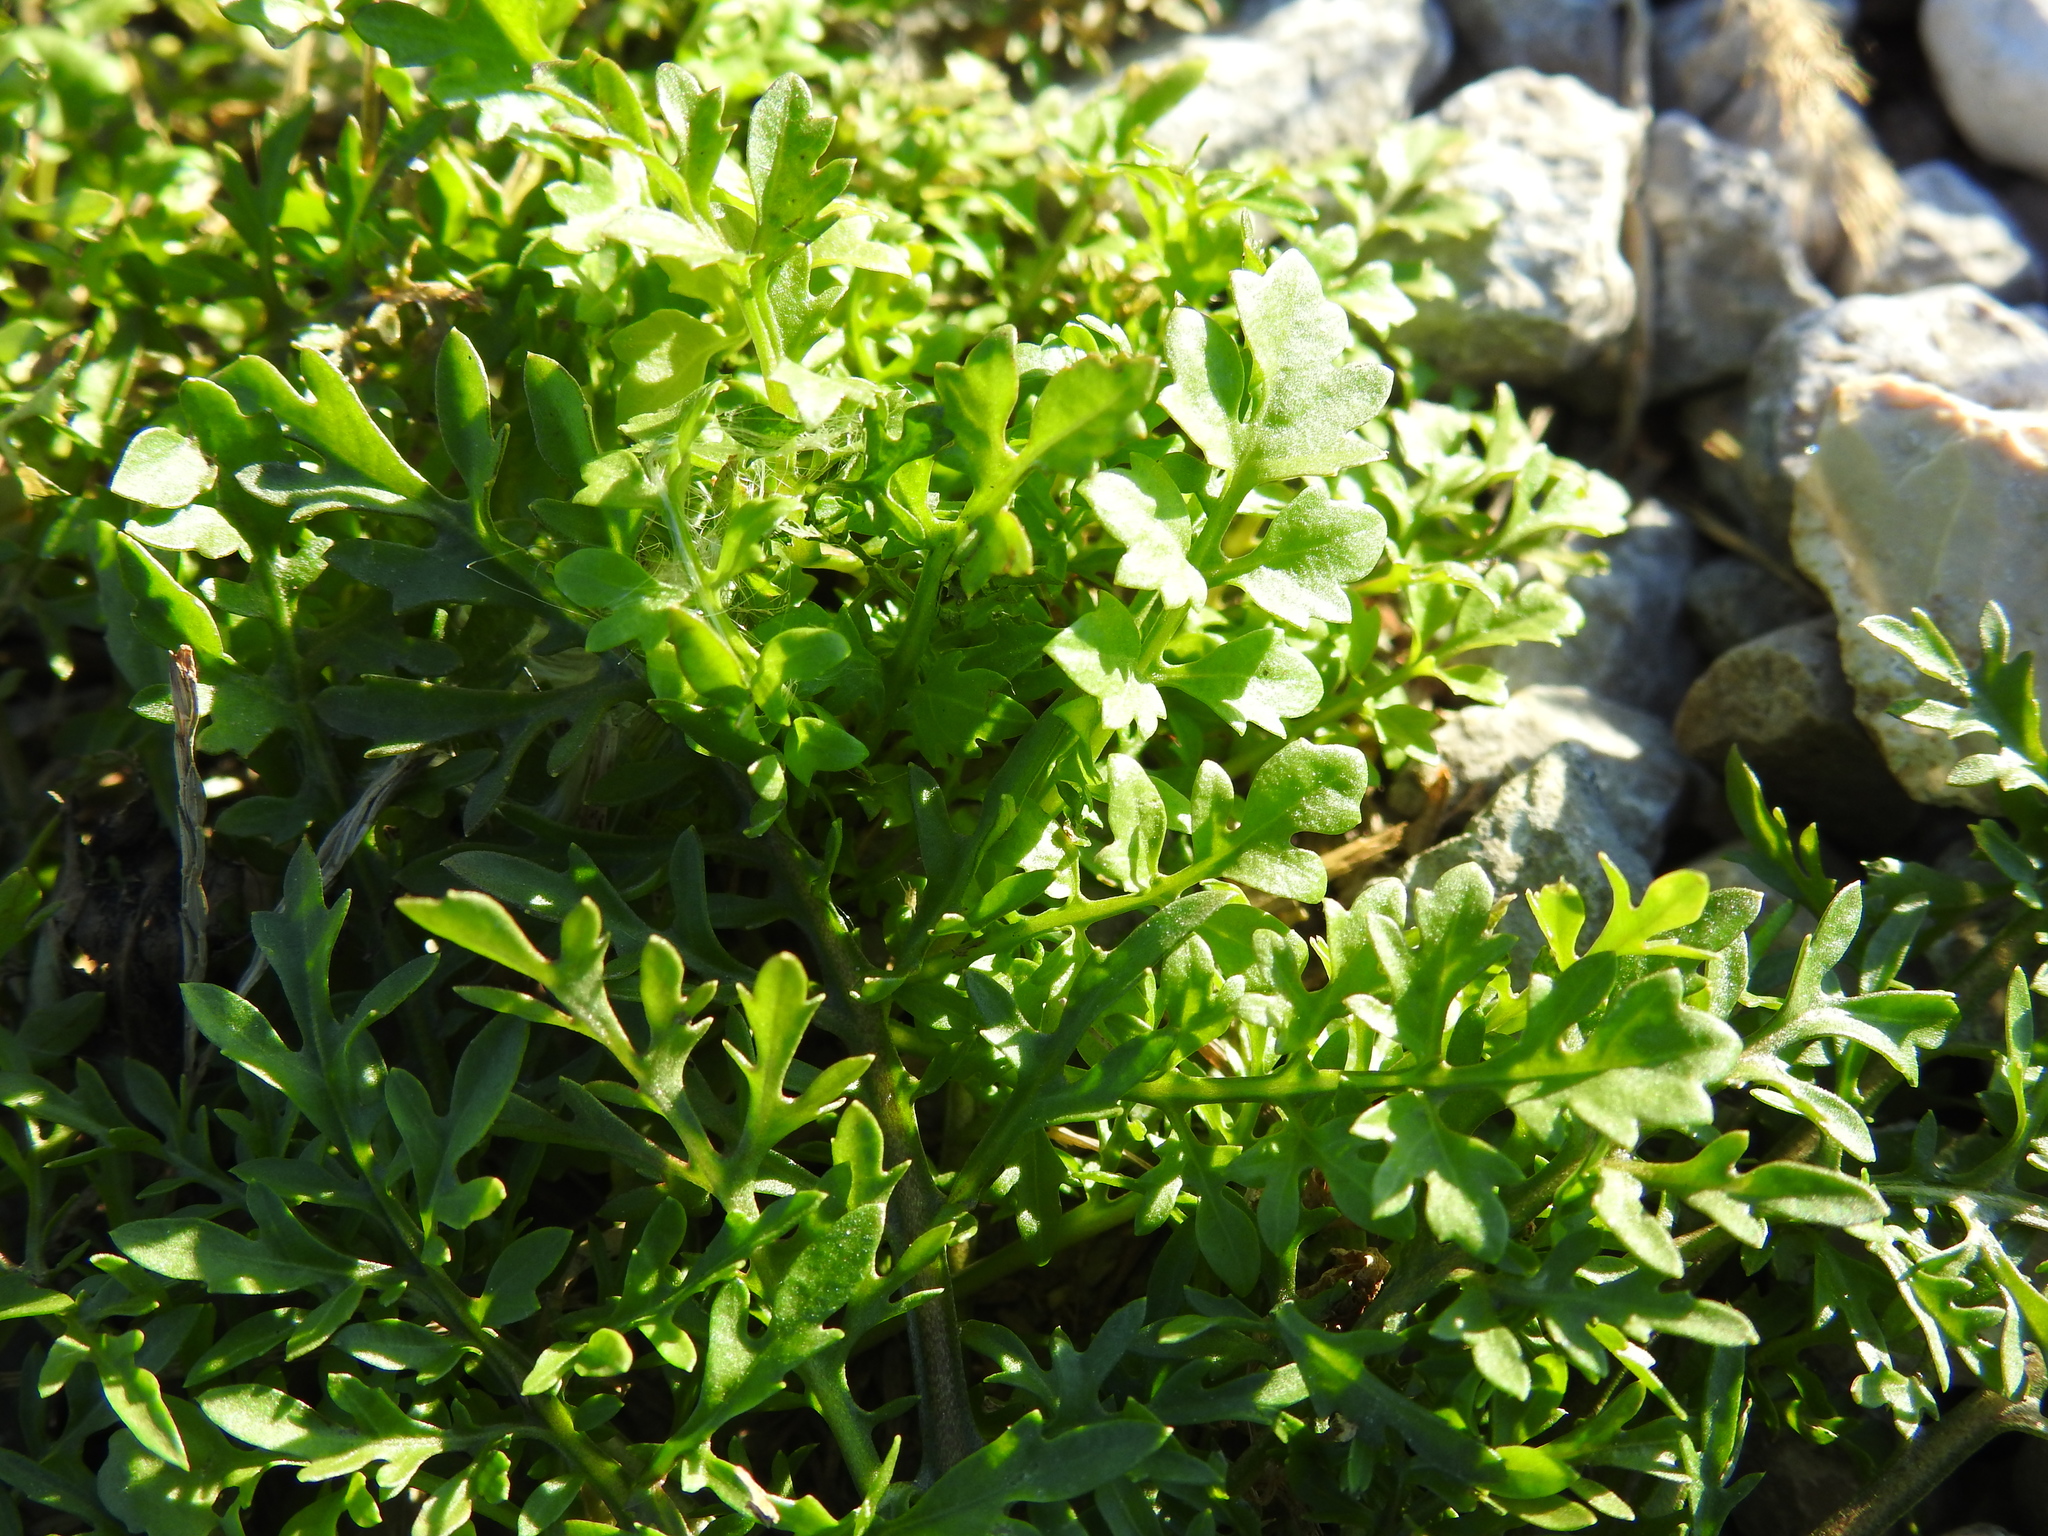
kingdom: Plantae
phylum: Tracheophyta
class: Magnoliopsida
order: Brassicales
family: Brassicaceae
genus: Rorippa
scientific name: Rorippa palustris
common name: Marsh yellow-cress
